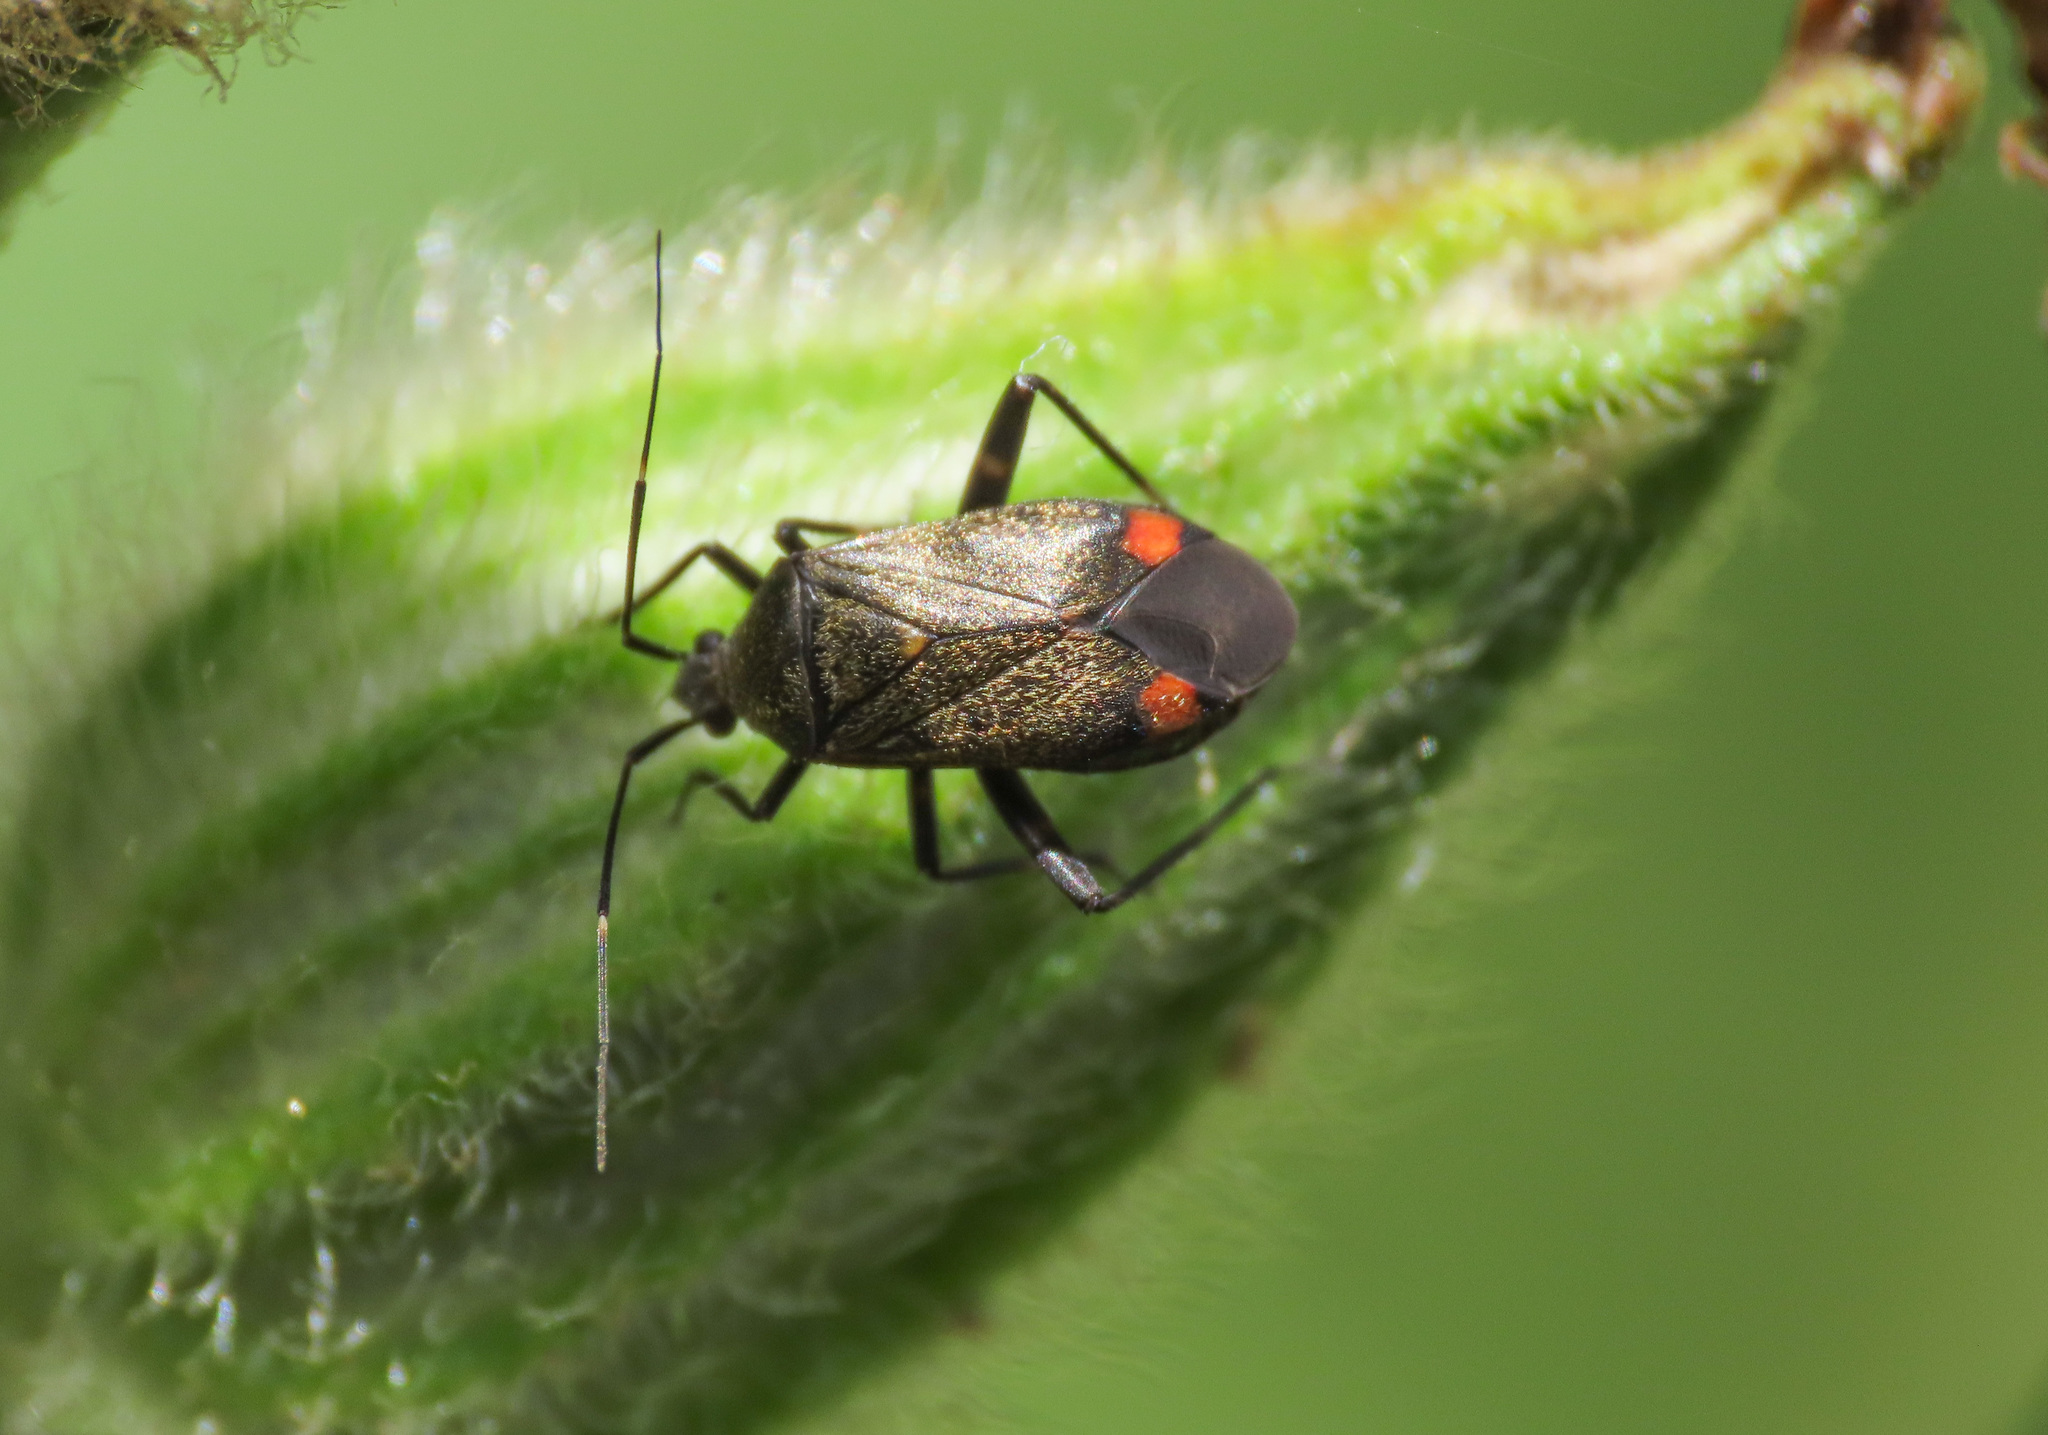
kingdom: Animalia
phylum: Arthropoda
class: Insecta
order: Hemiptera
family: Miridae
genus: Closterotomus
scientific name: Closterotomus cinctipes
